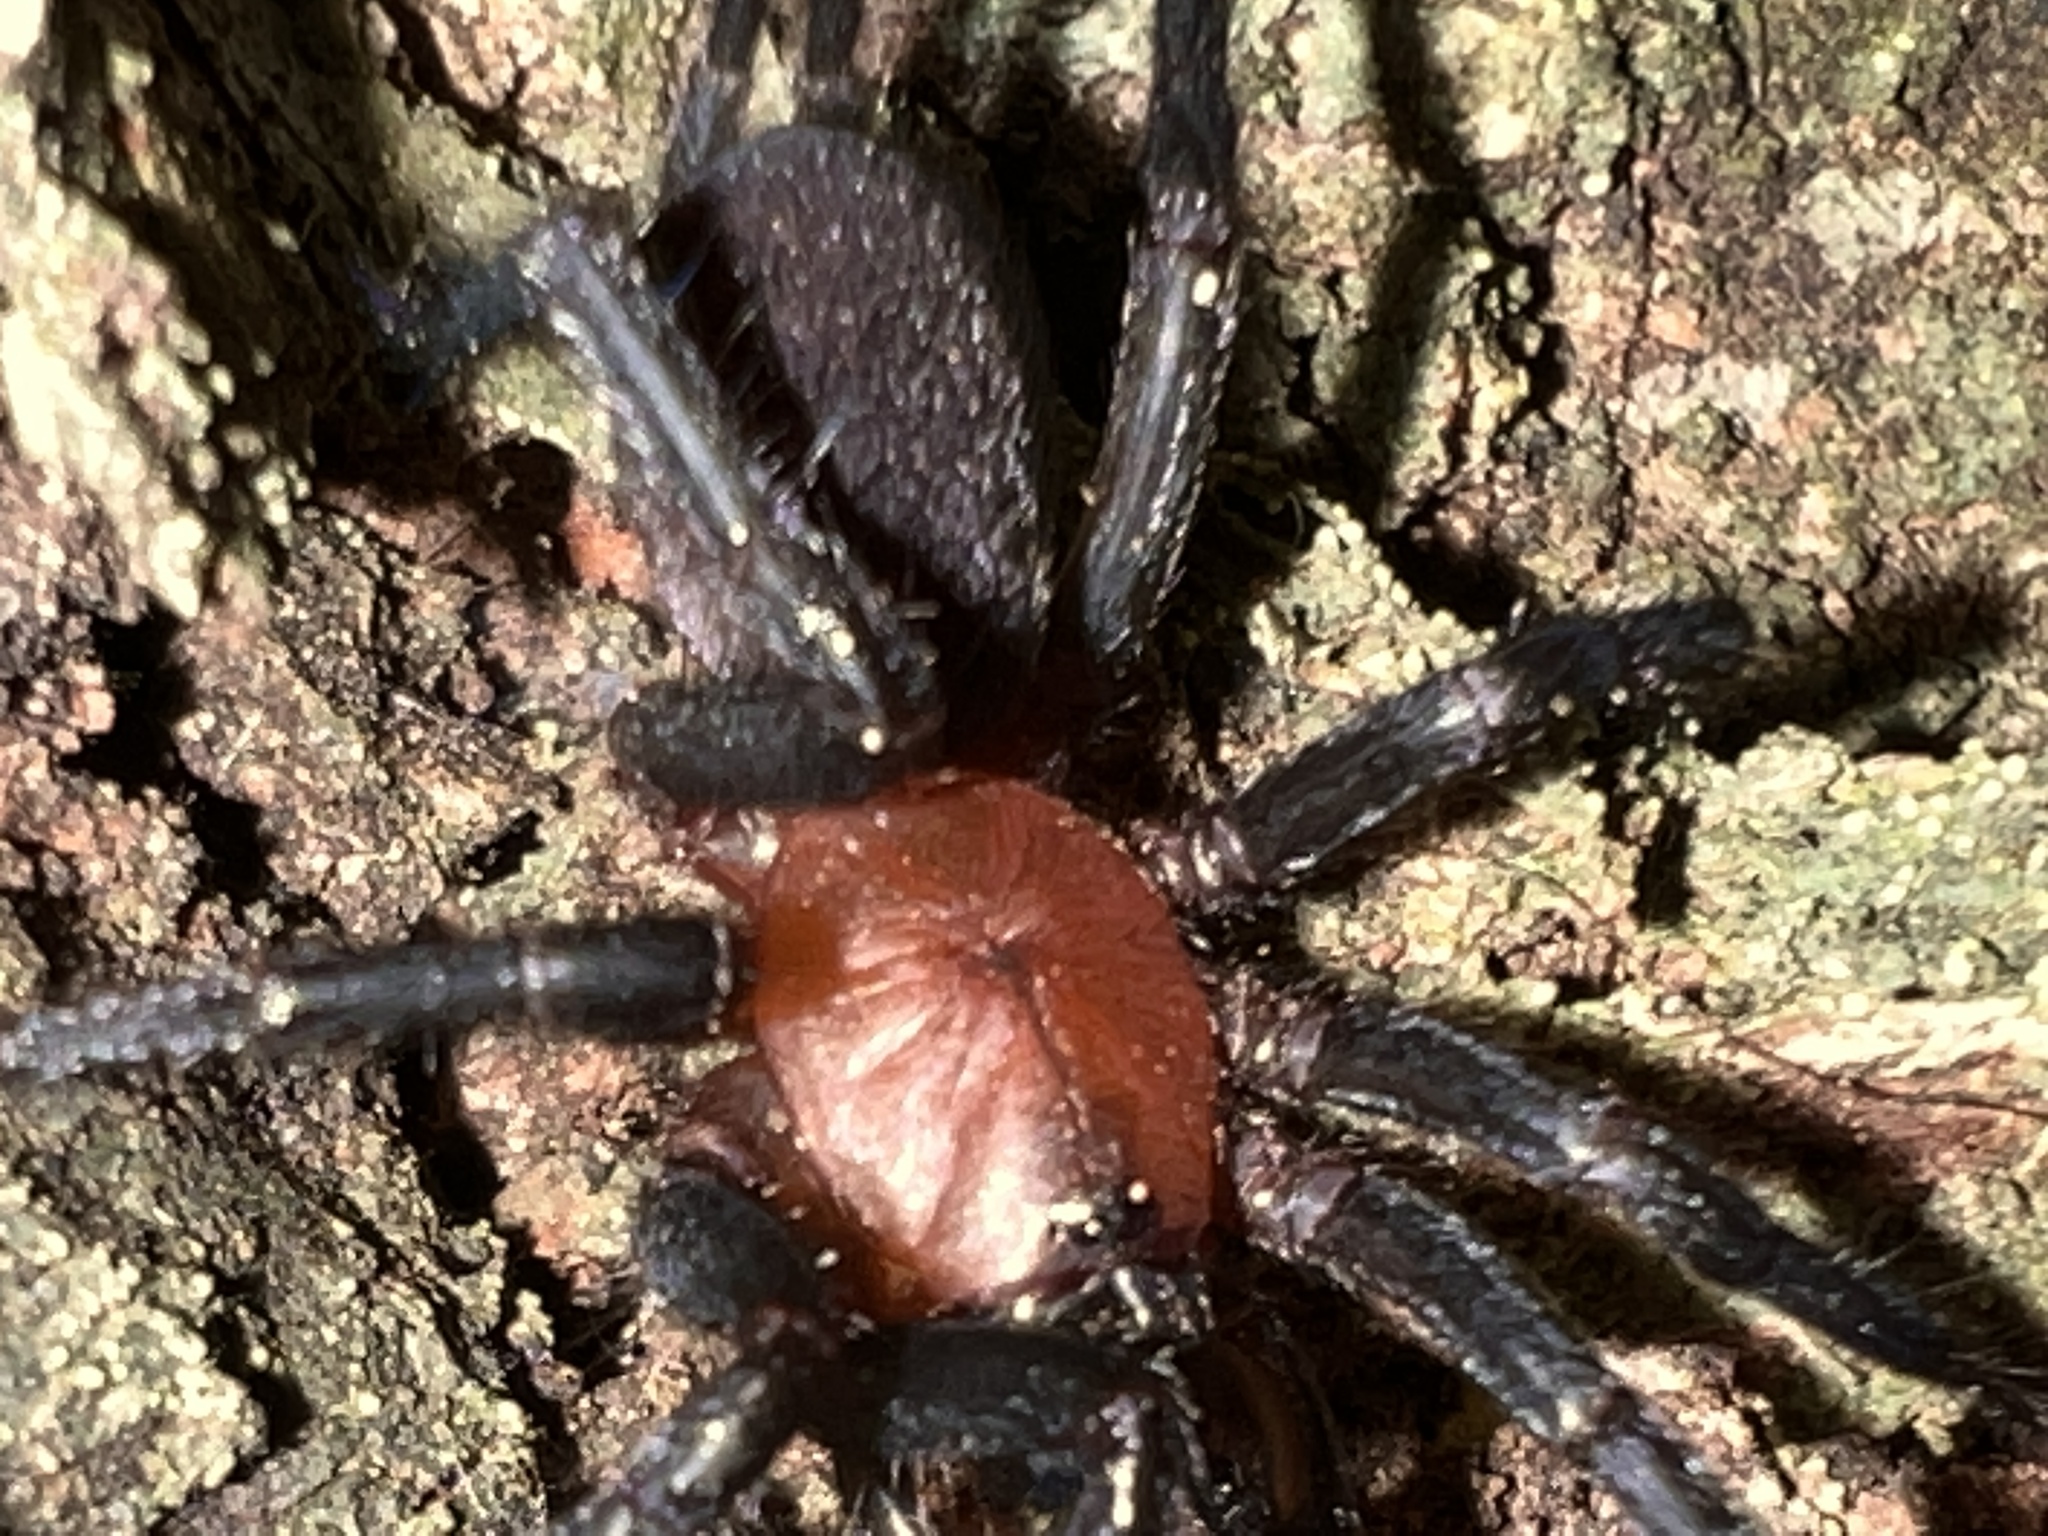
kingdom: Animalia
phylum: Arthropoda
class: Arachnida
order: Araneae
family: Dipluridae
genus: Diplura
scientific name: Diplura paraguayensis
